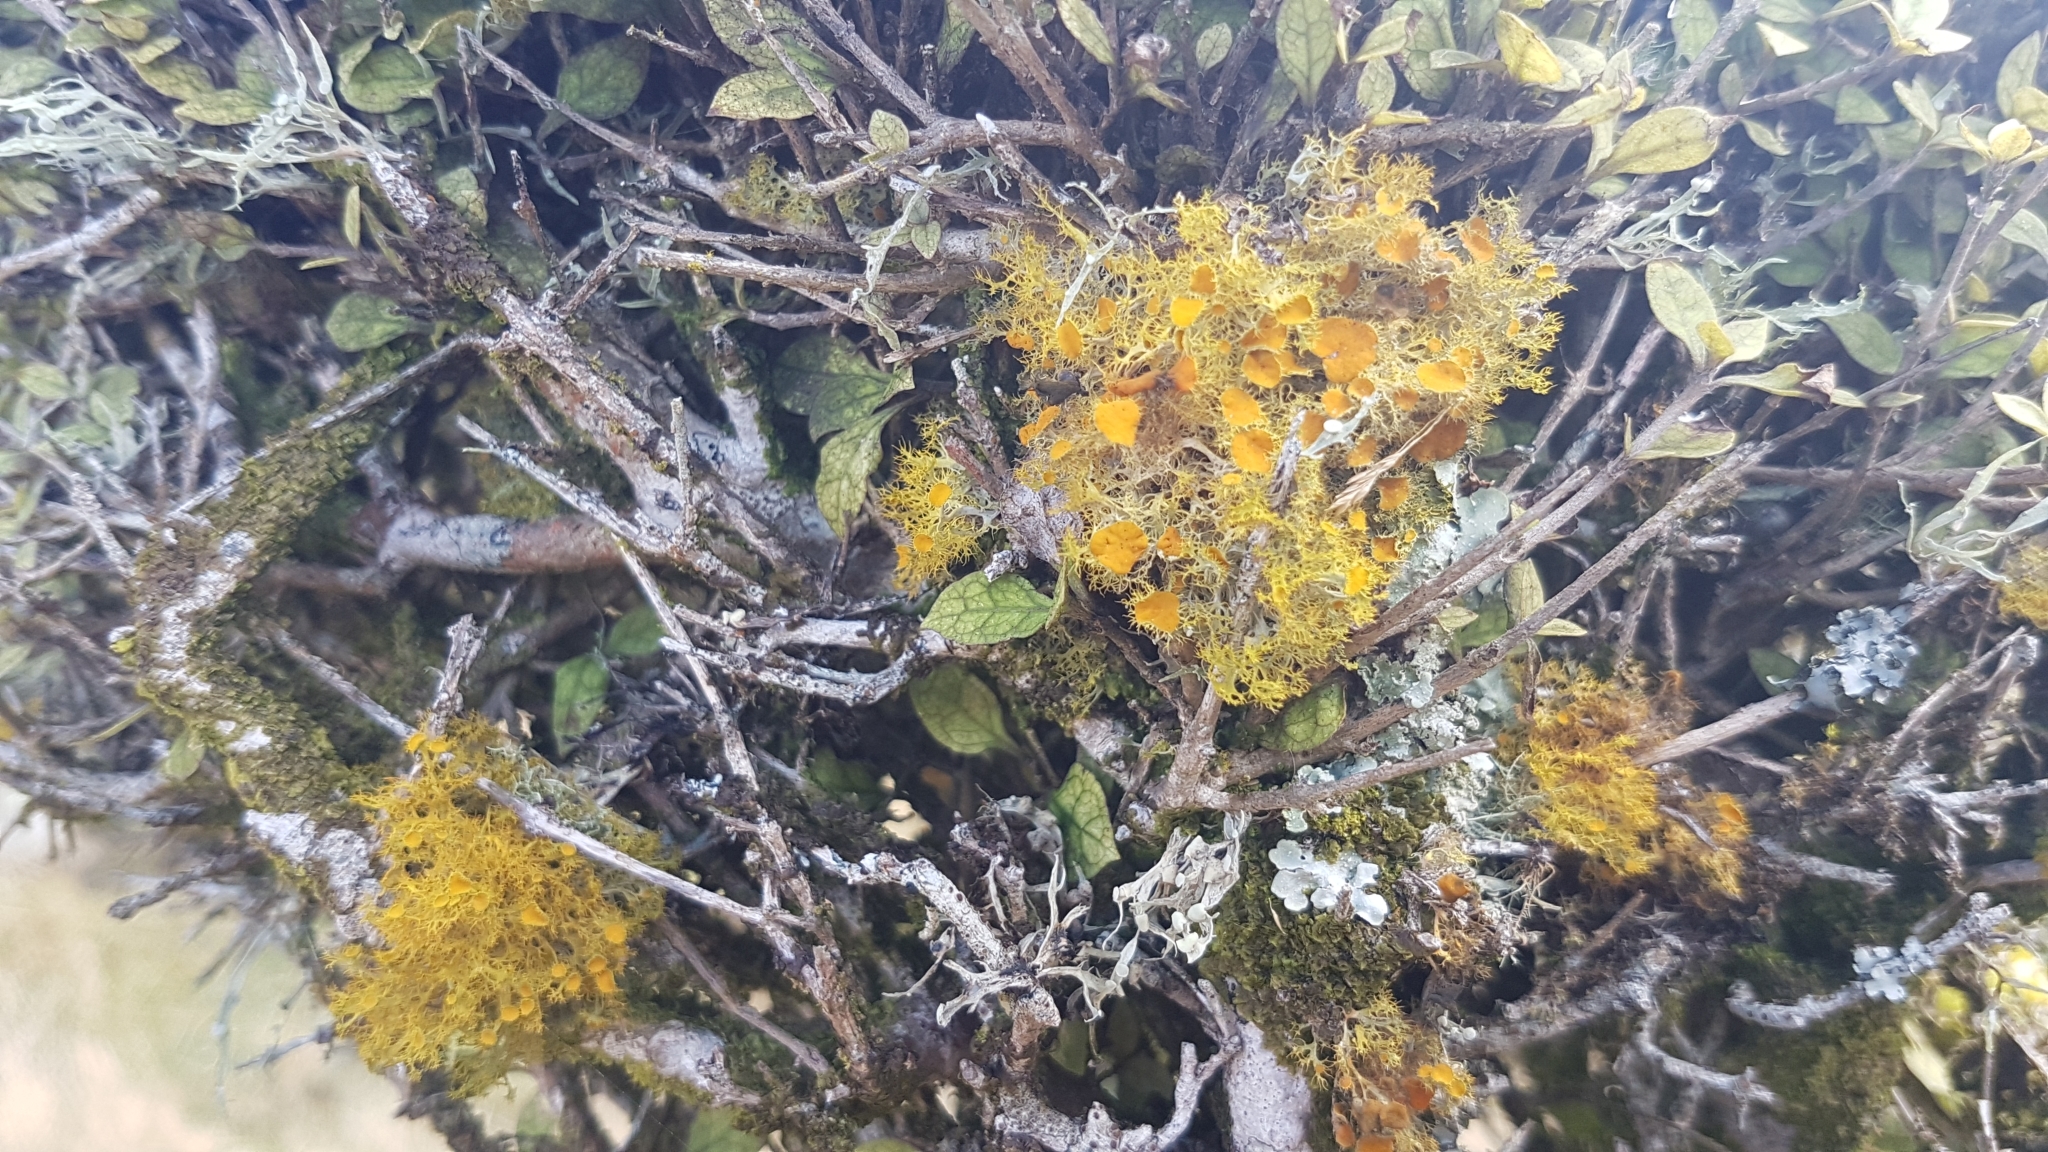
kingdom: Fungi
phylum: Ascomycota
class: Lecanoromycetes
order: Teloschistales
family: Teloschistaceae
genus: Niorma
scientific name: Niorma chrysophthalma
